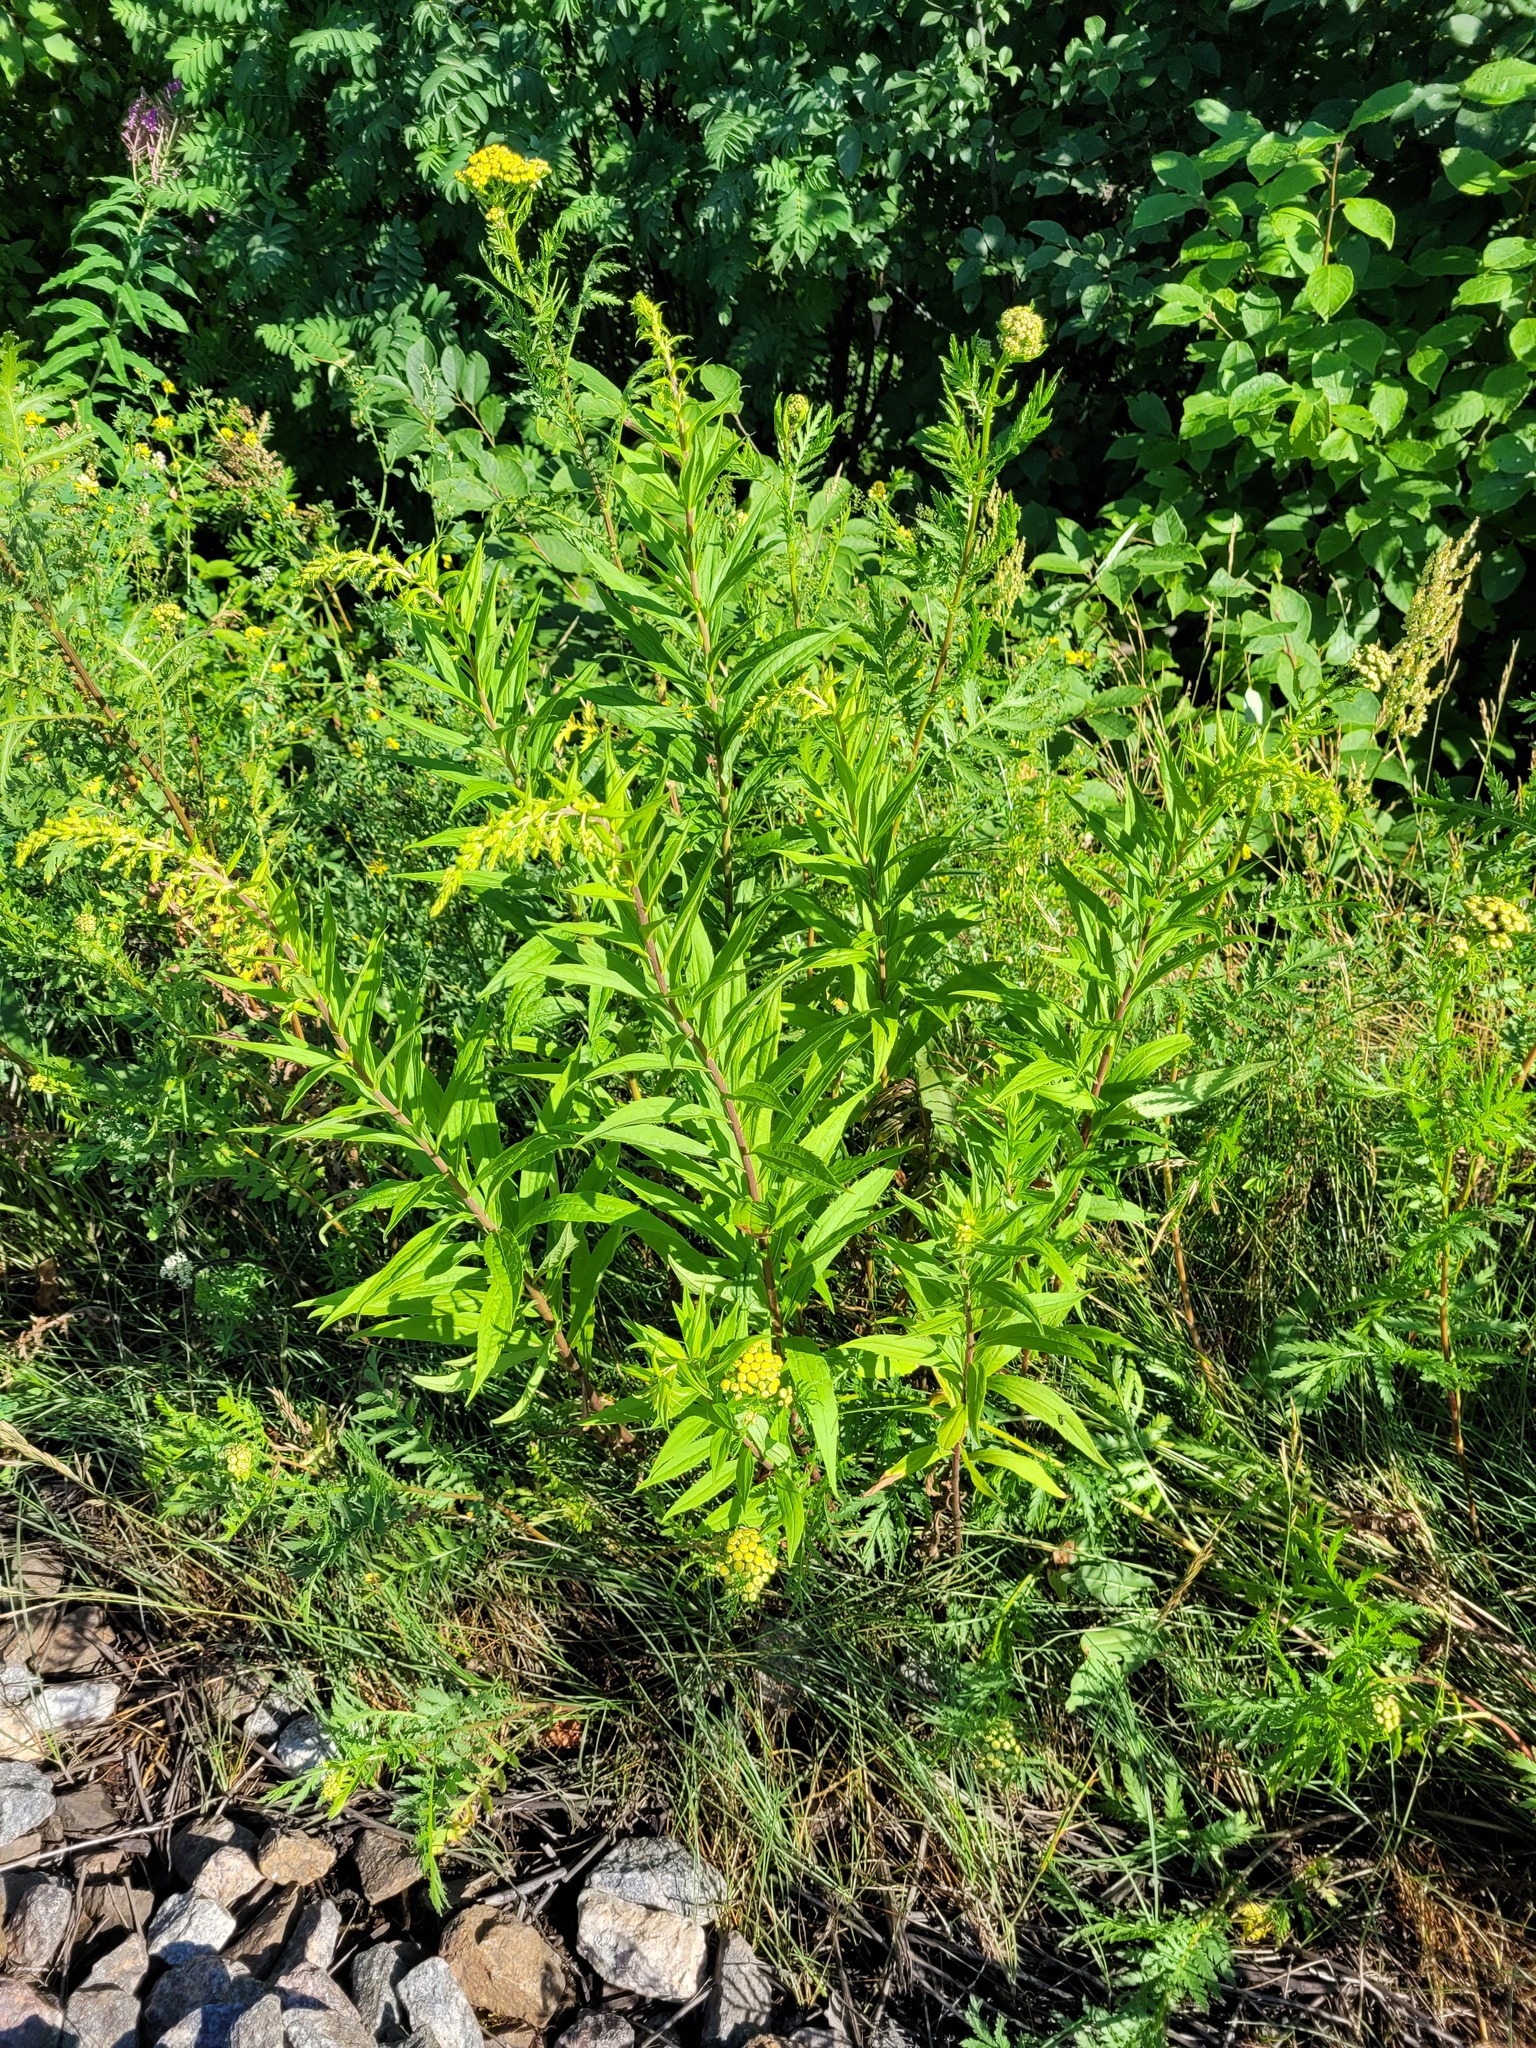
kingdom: Plantae
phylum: Tracheophyta
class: Magnoliopsida
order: Asterales
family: Asteraceae
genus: Solidago
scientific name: Solidago canadensis
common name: Canada goldenrod
